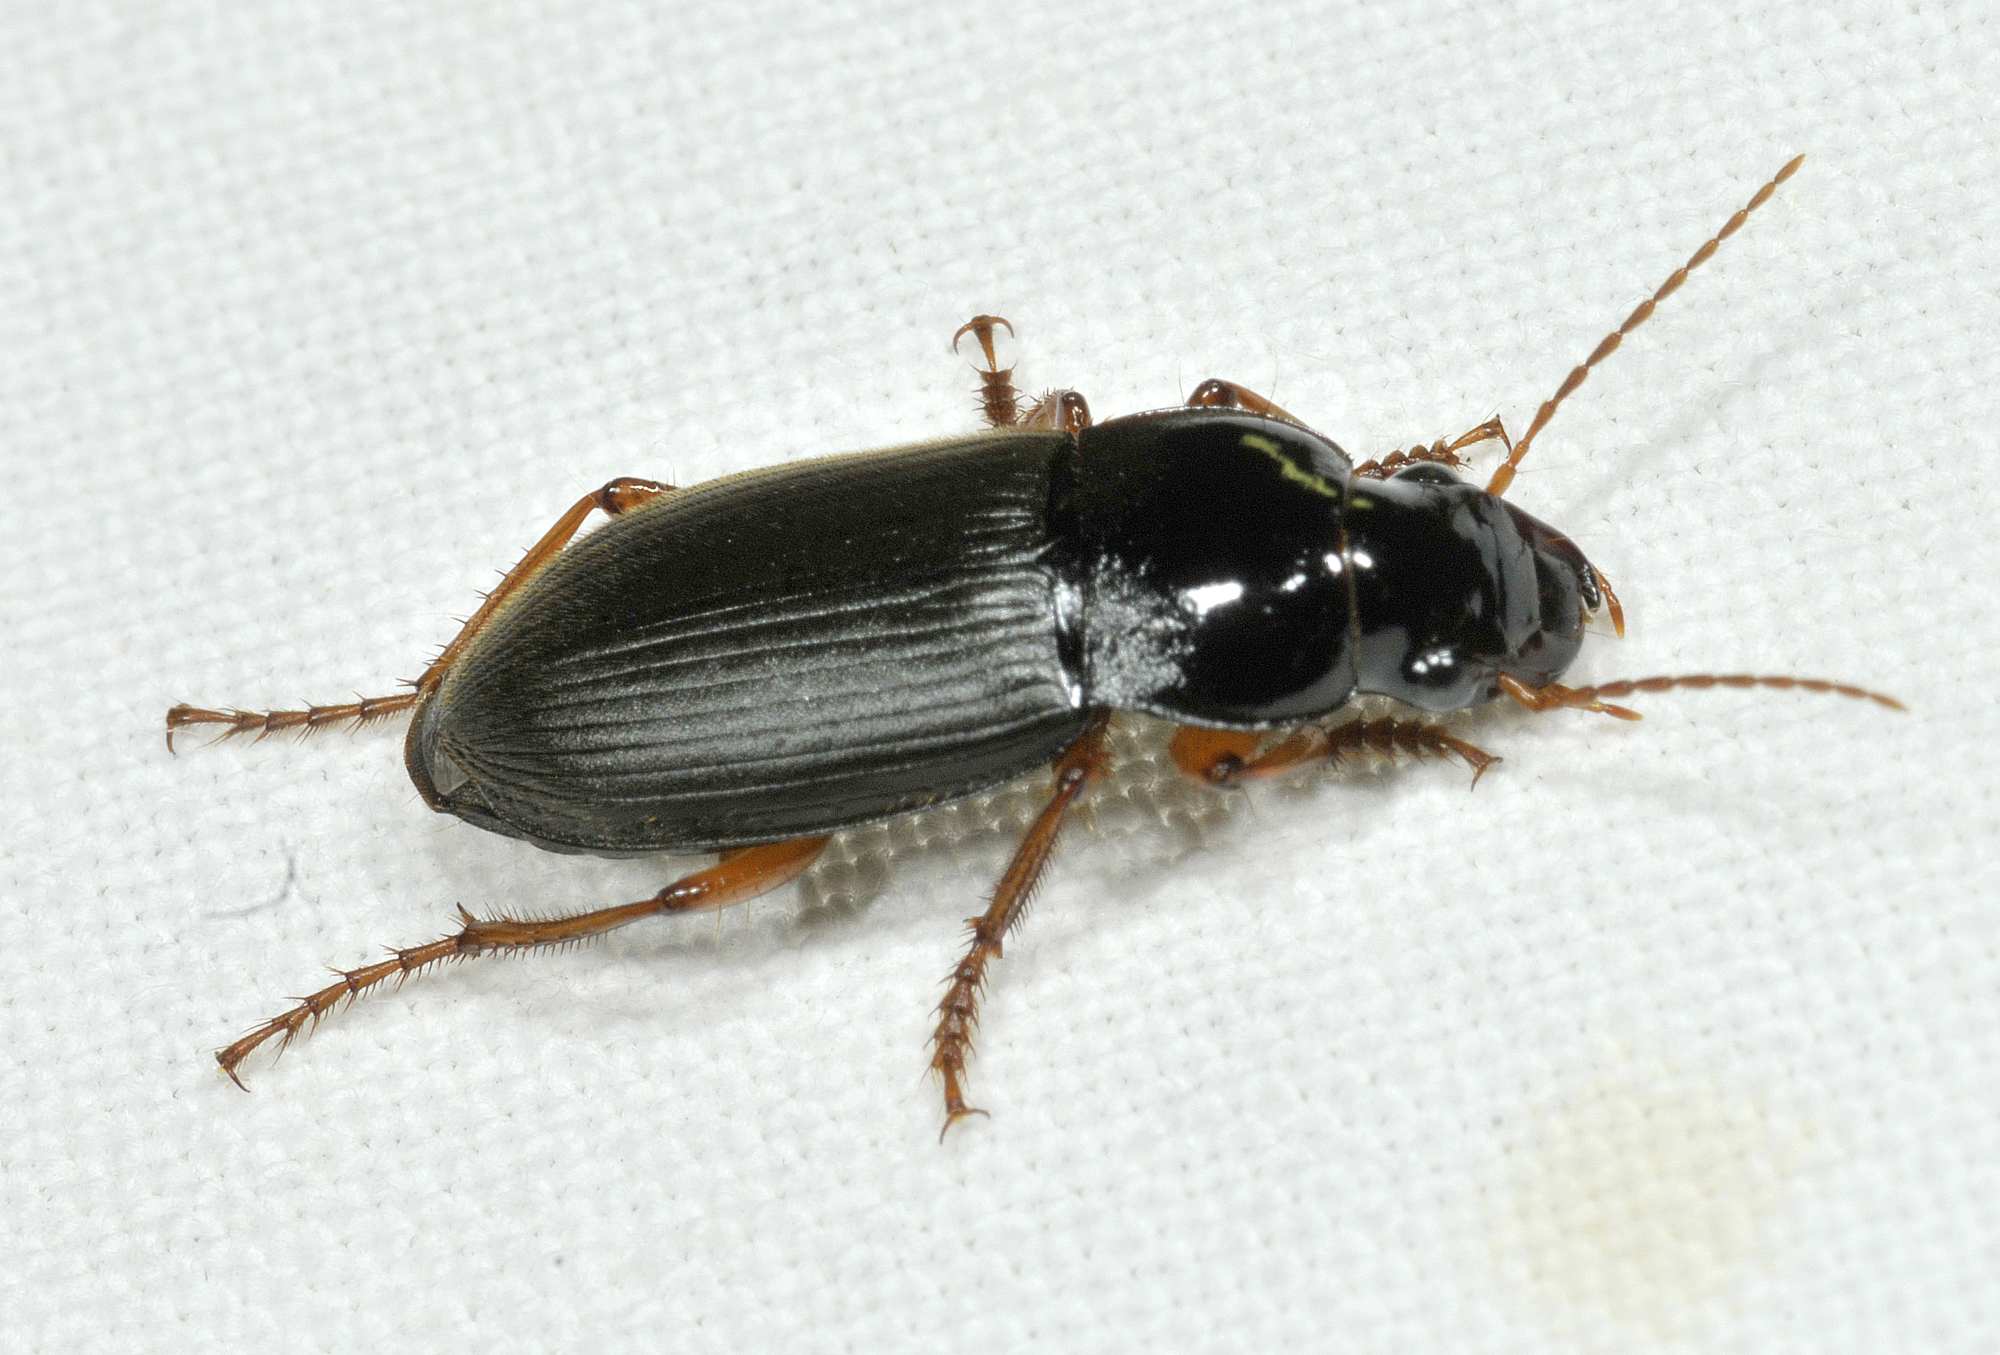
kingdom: Animalia
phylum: Arthropoda
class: Insecta
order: Coleoptera
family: Carabidae
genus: Harpalus
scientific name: Harpalus rufipes
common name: Strawberry harp ground beetle
